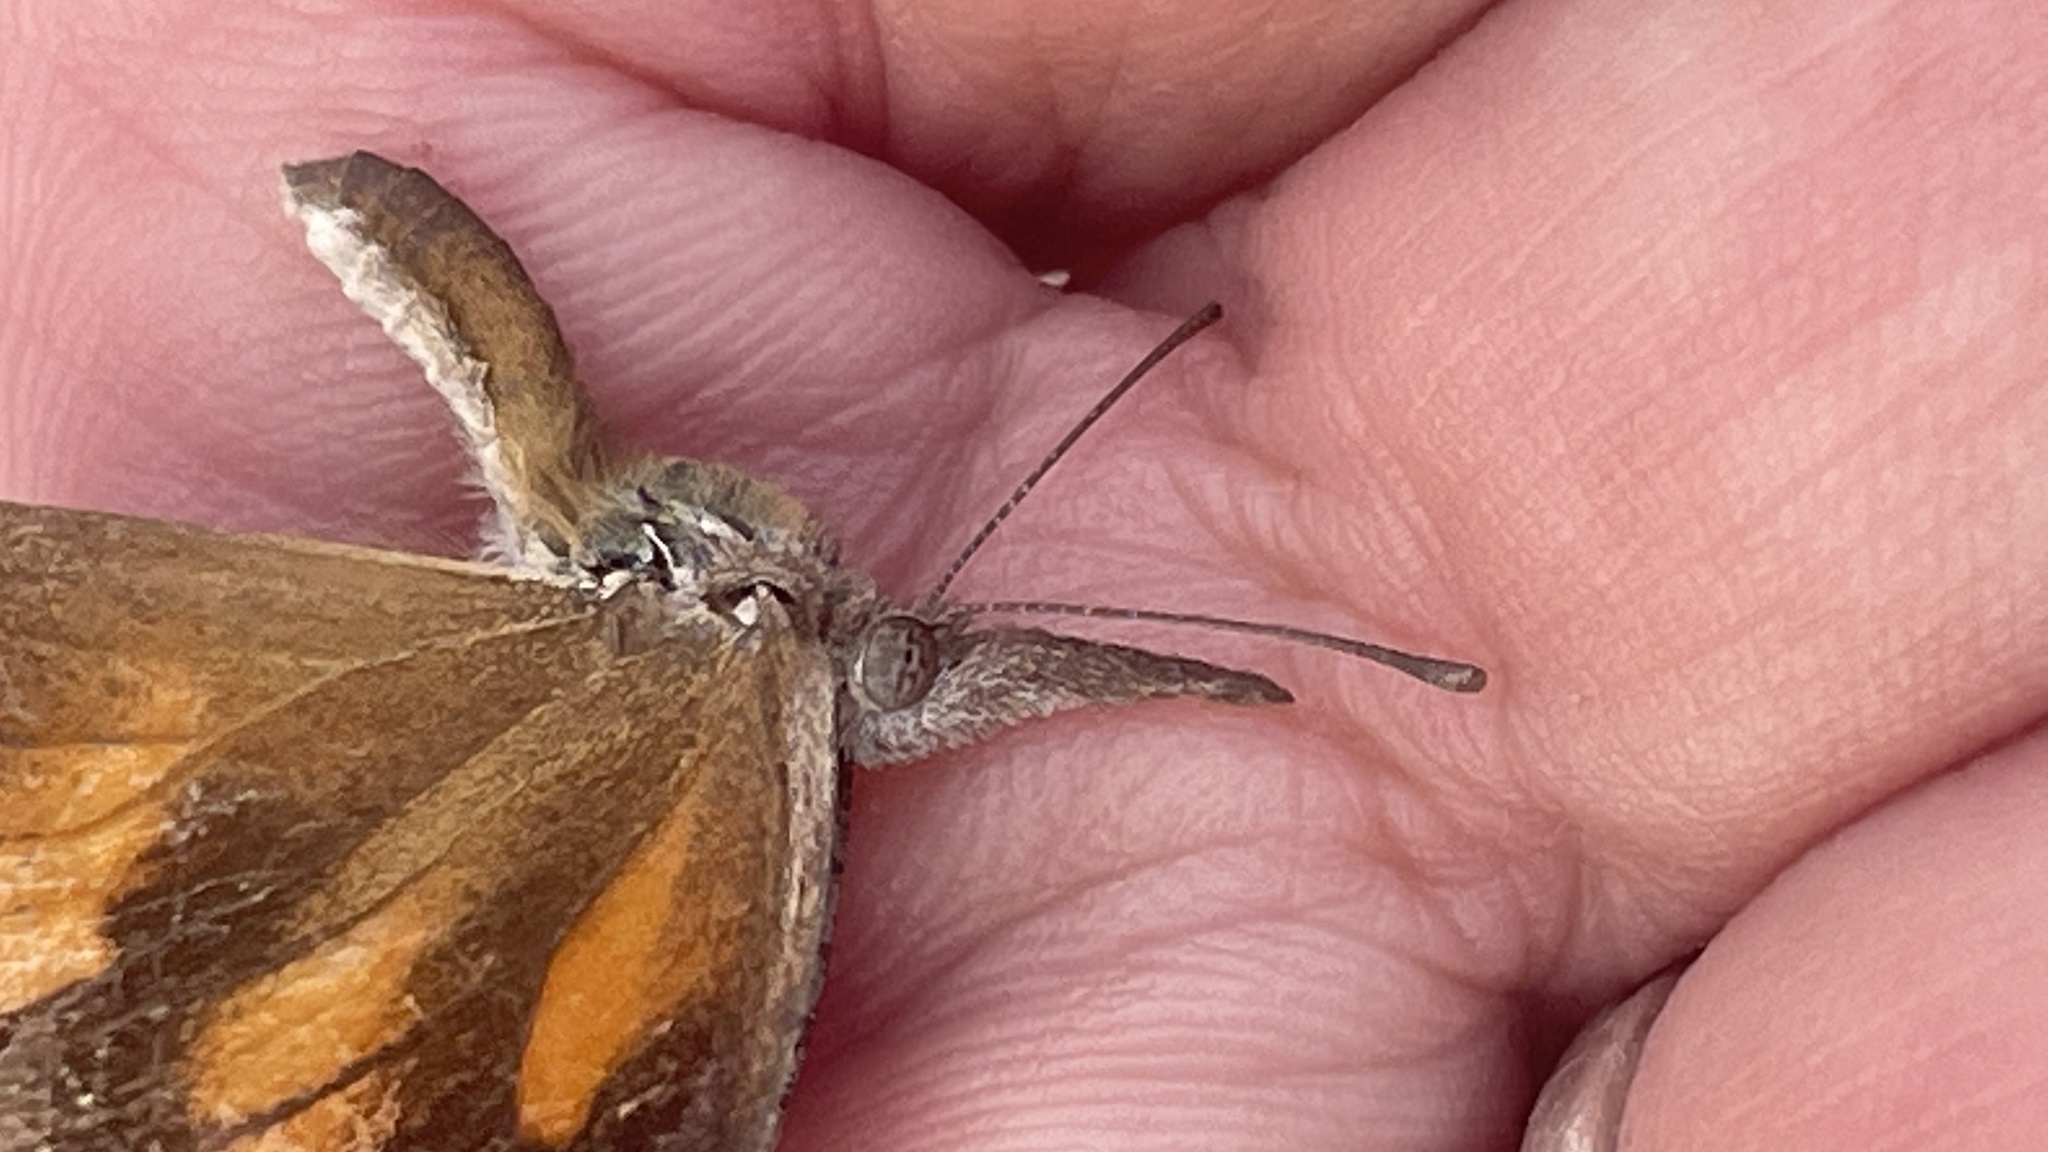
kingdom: Animalia
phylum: Arthropoda
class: Insecta
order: Lepidoptera
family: Nymphalidae
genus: Libytheana
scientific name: Libytheana carinenta
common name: American snout
